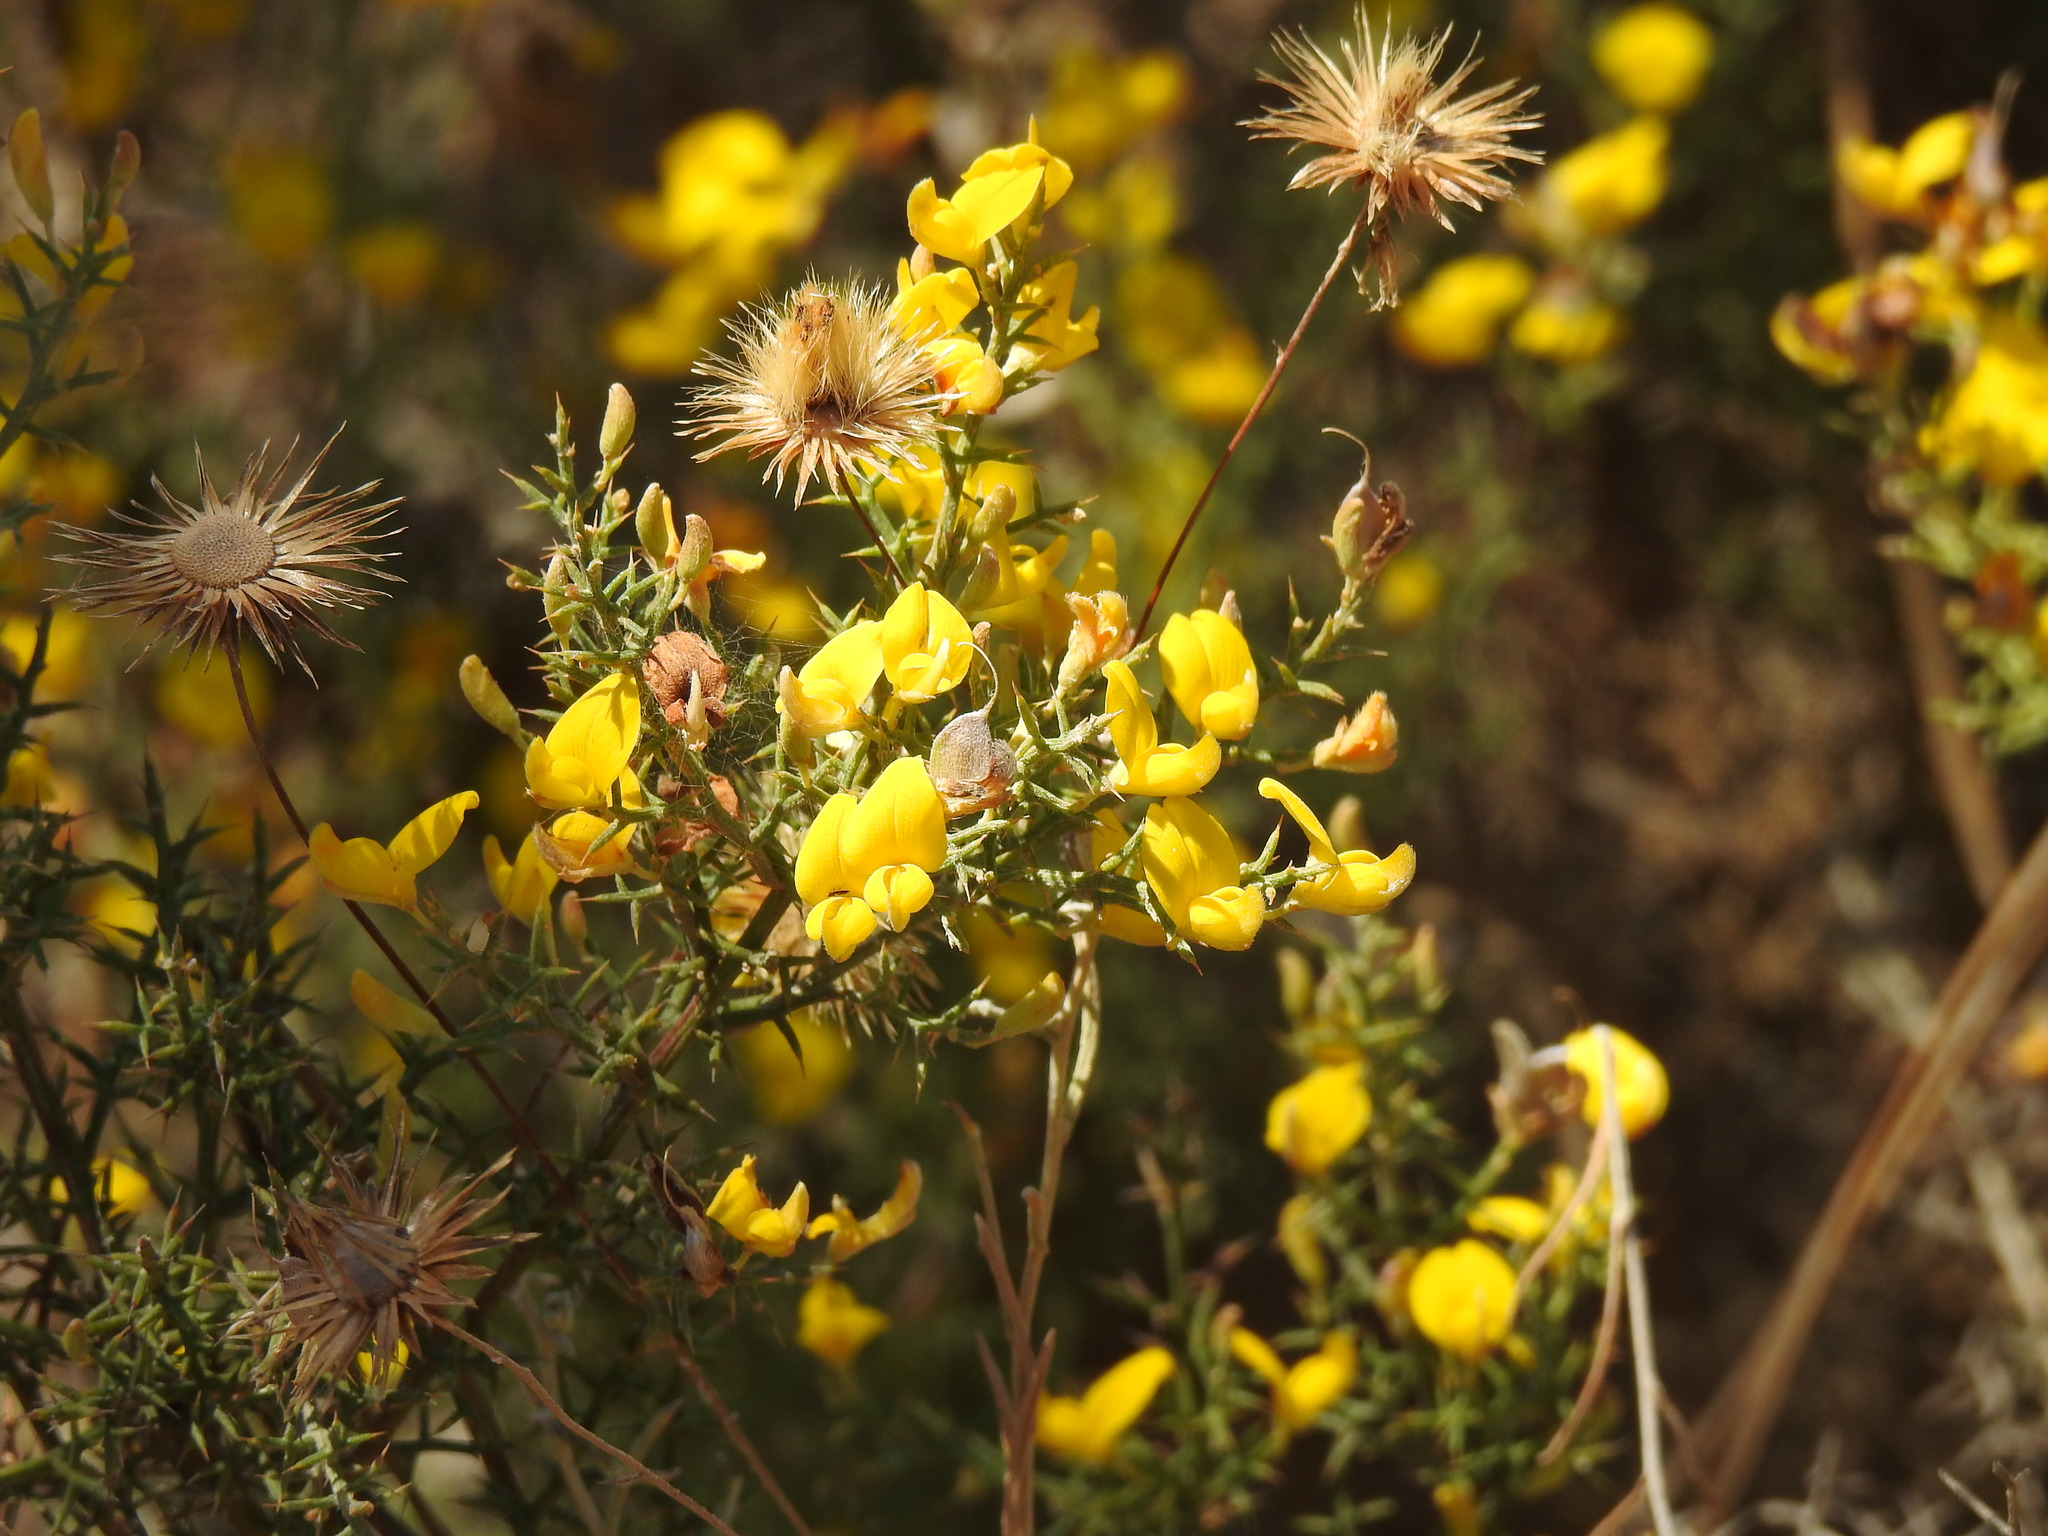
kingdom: Plantae
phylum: Tracheophyta
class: Magnoliopsida
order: Fabales
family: Fabaceae
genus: Stauracanthus
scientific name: Stauracanthus boivinii
